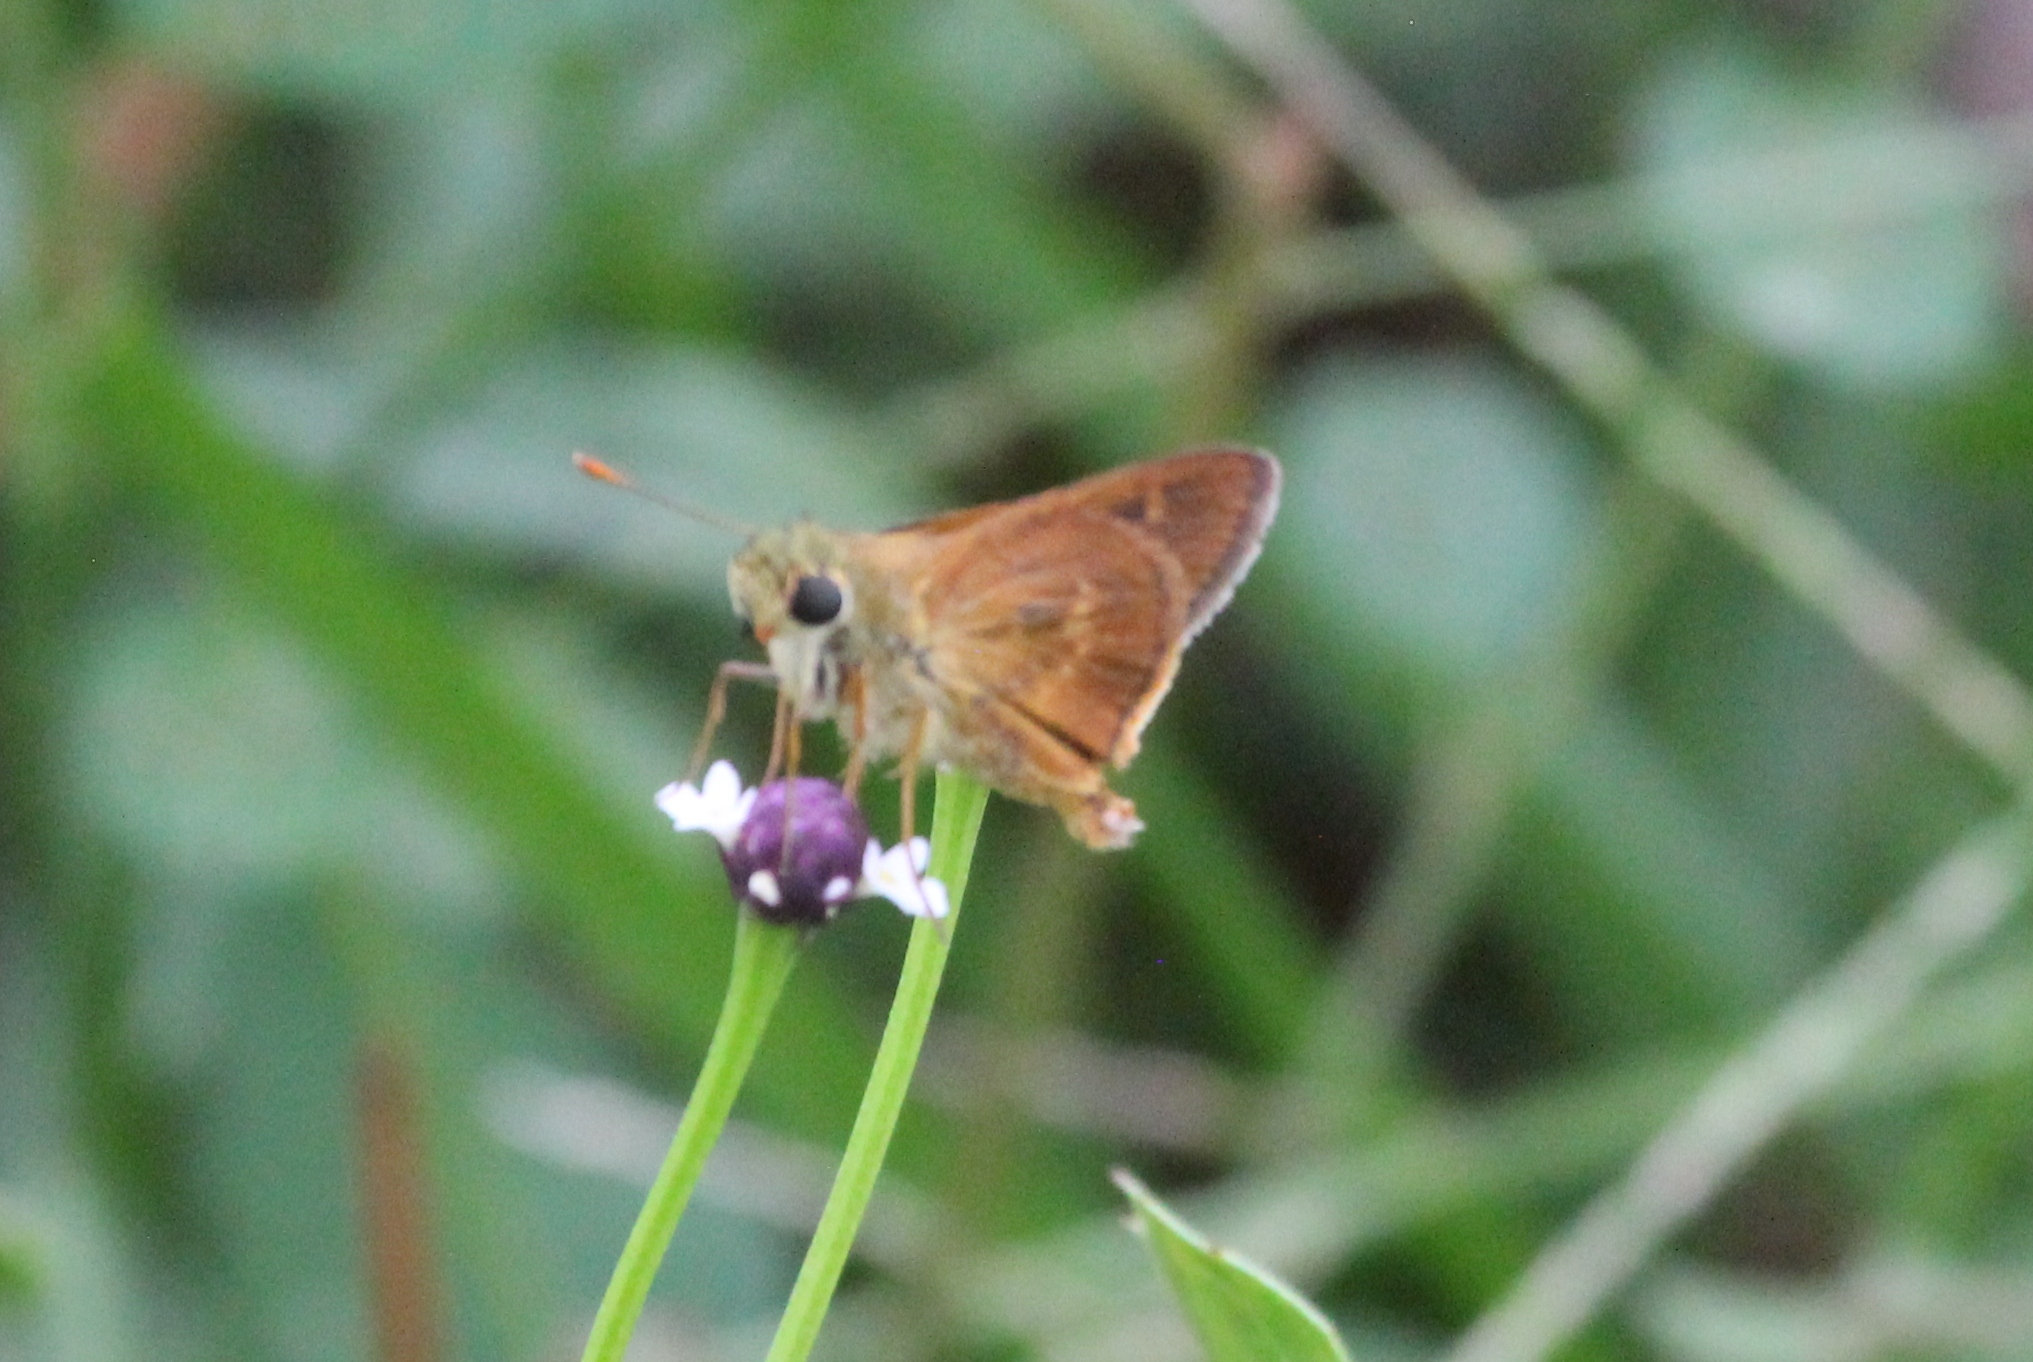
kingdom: Animalia
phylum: Arthropoda
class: Insecta
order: Lepidoptera
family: Hesperiidae
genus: Polites
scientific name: Polites otho
